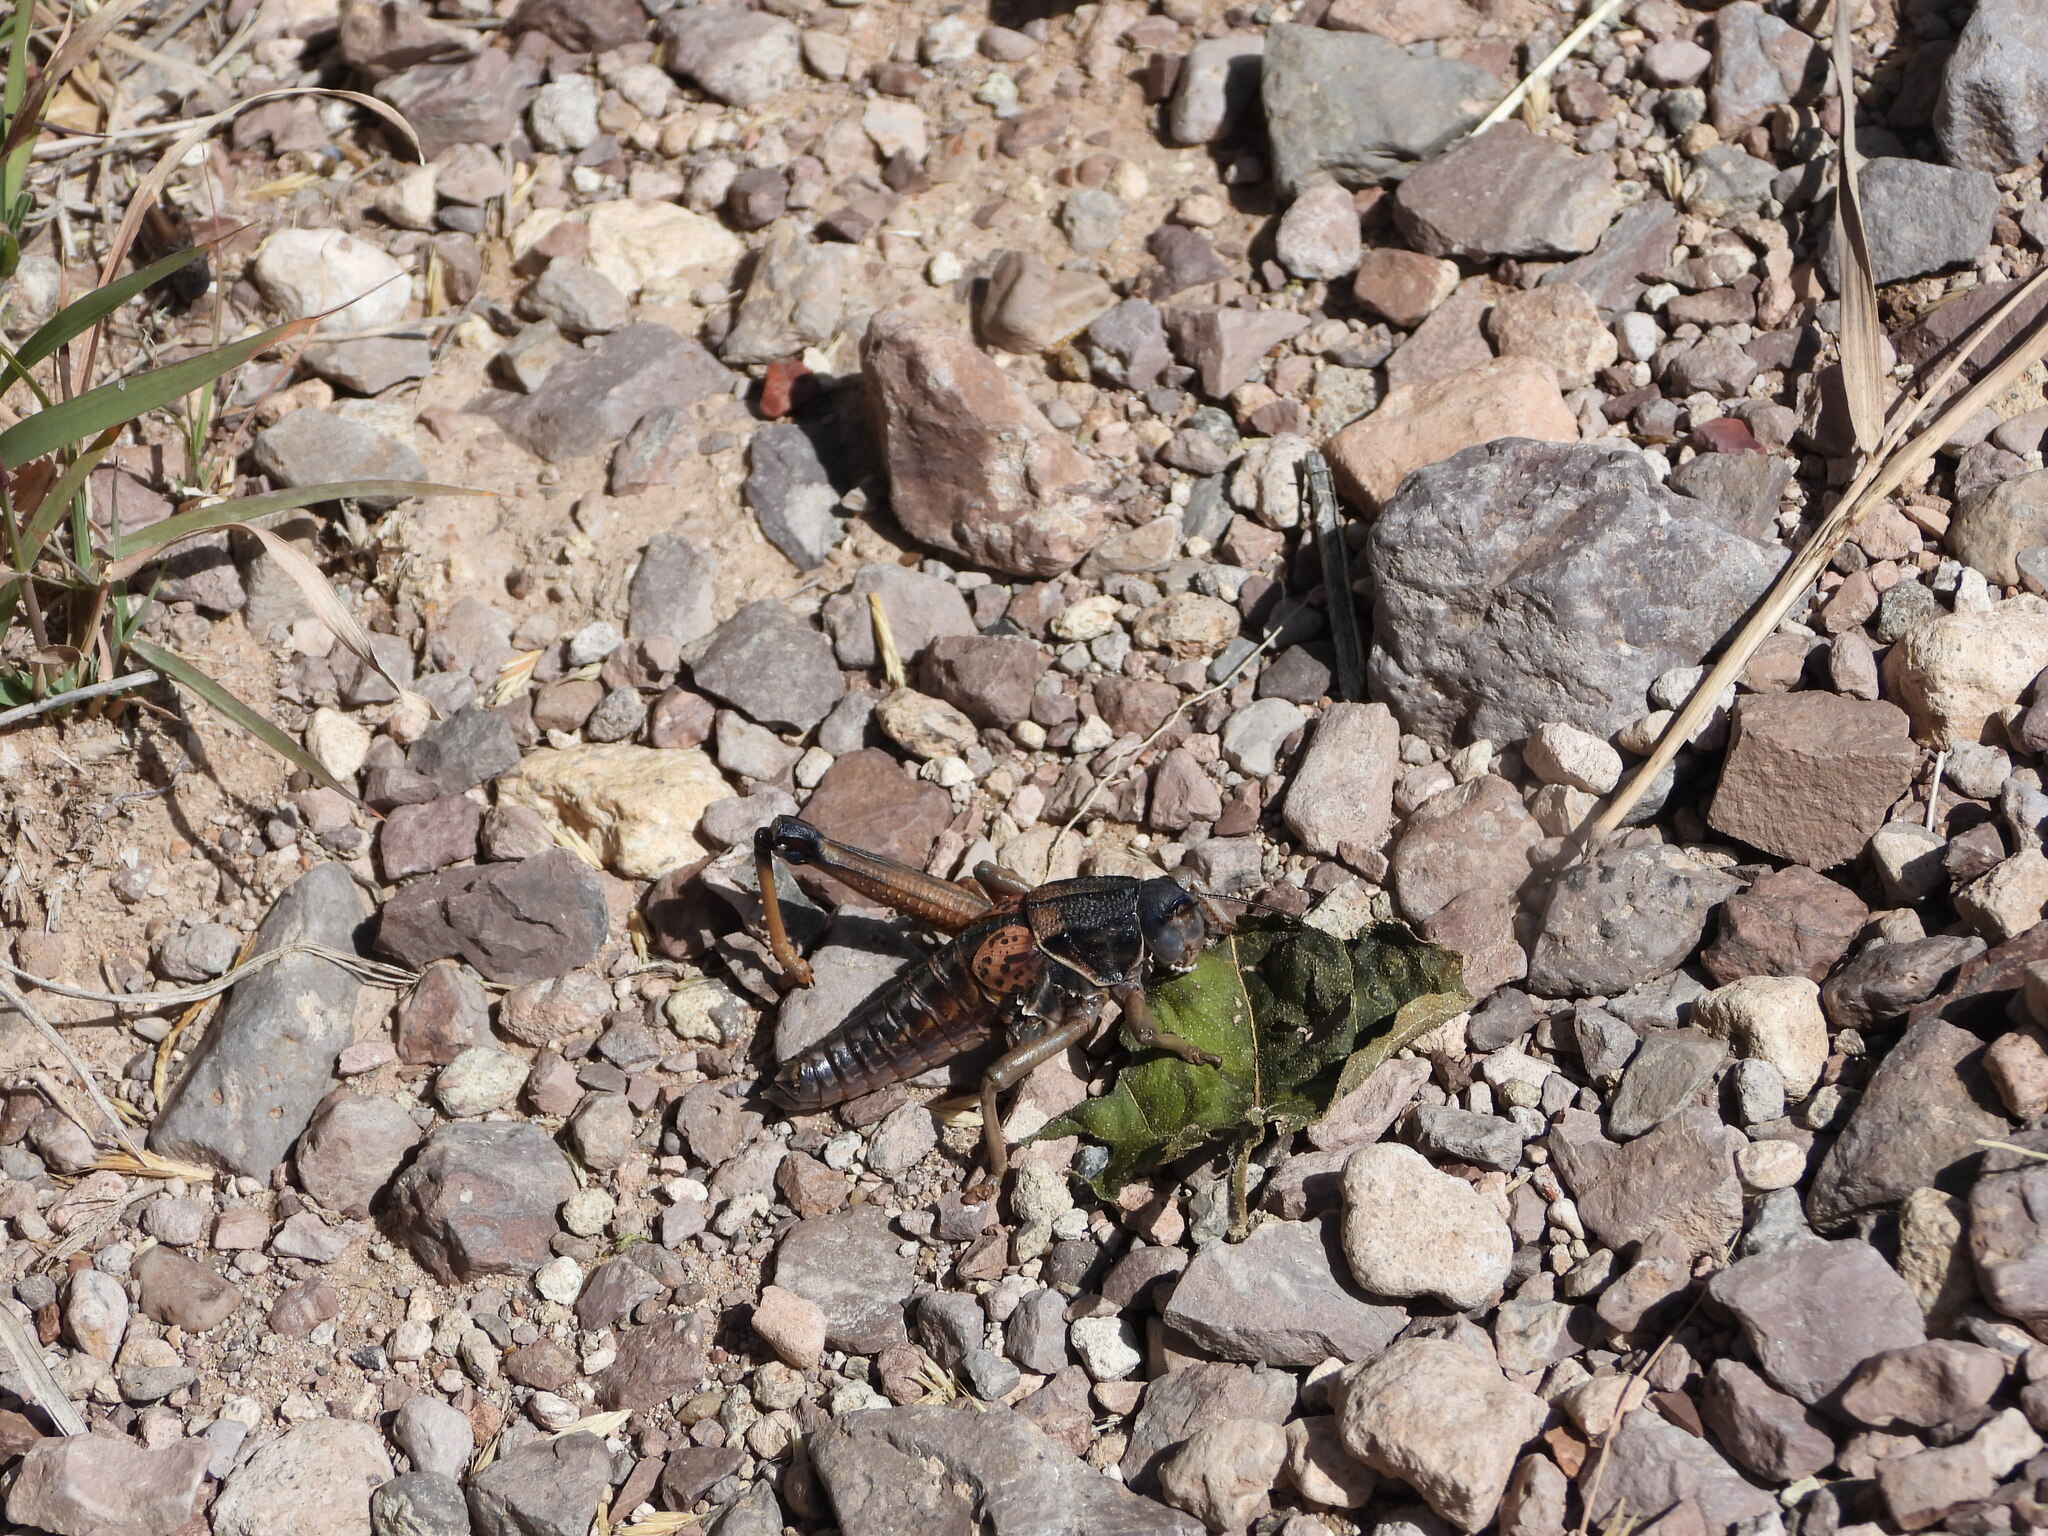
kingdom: Animalia
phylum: Arthropoda
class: Insecta
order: Orthoptera
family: Romaleidae
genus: Brachystola
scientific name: Brachystola magna
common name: Plains lubber grasshopper
